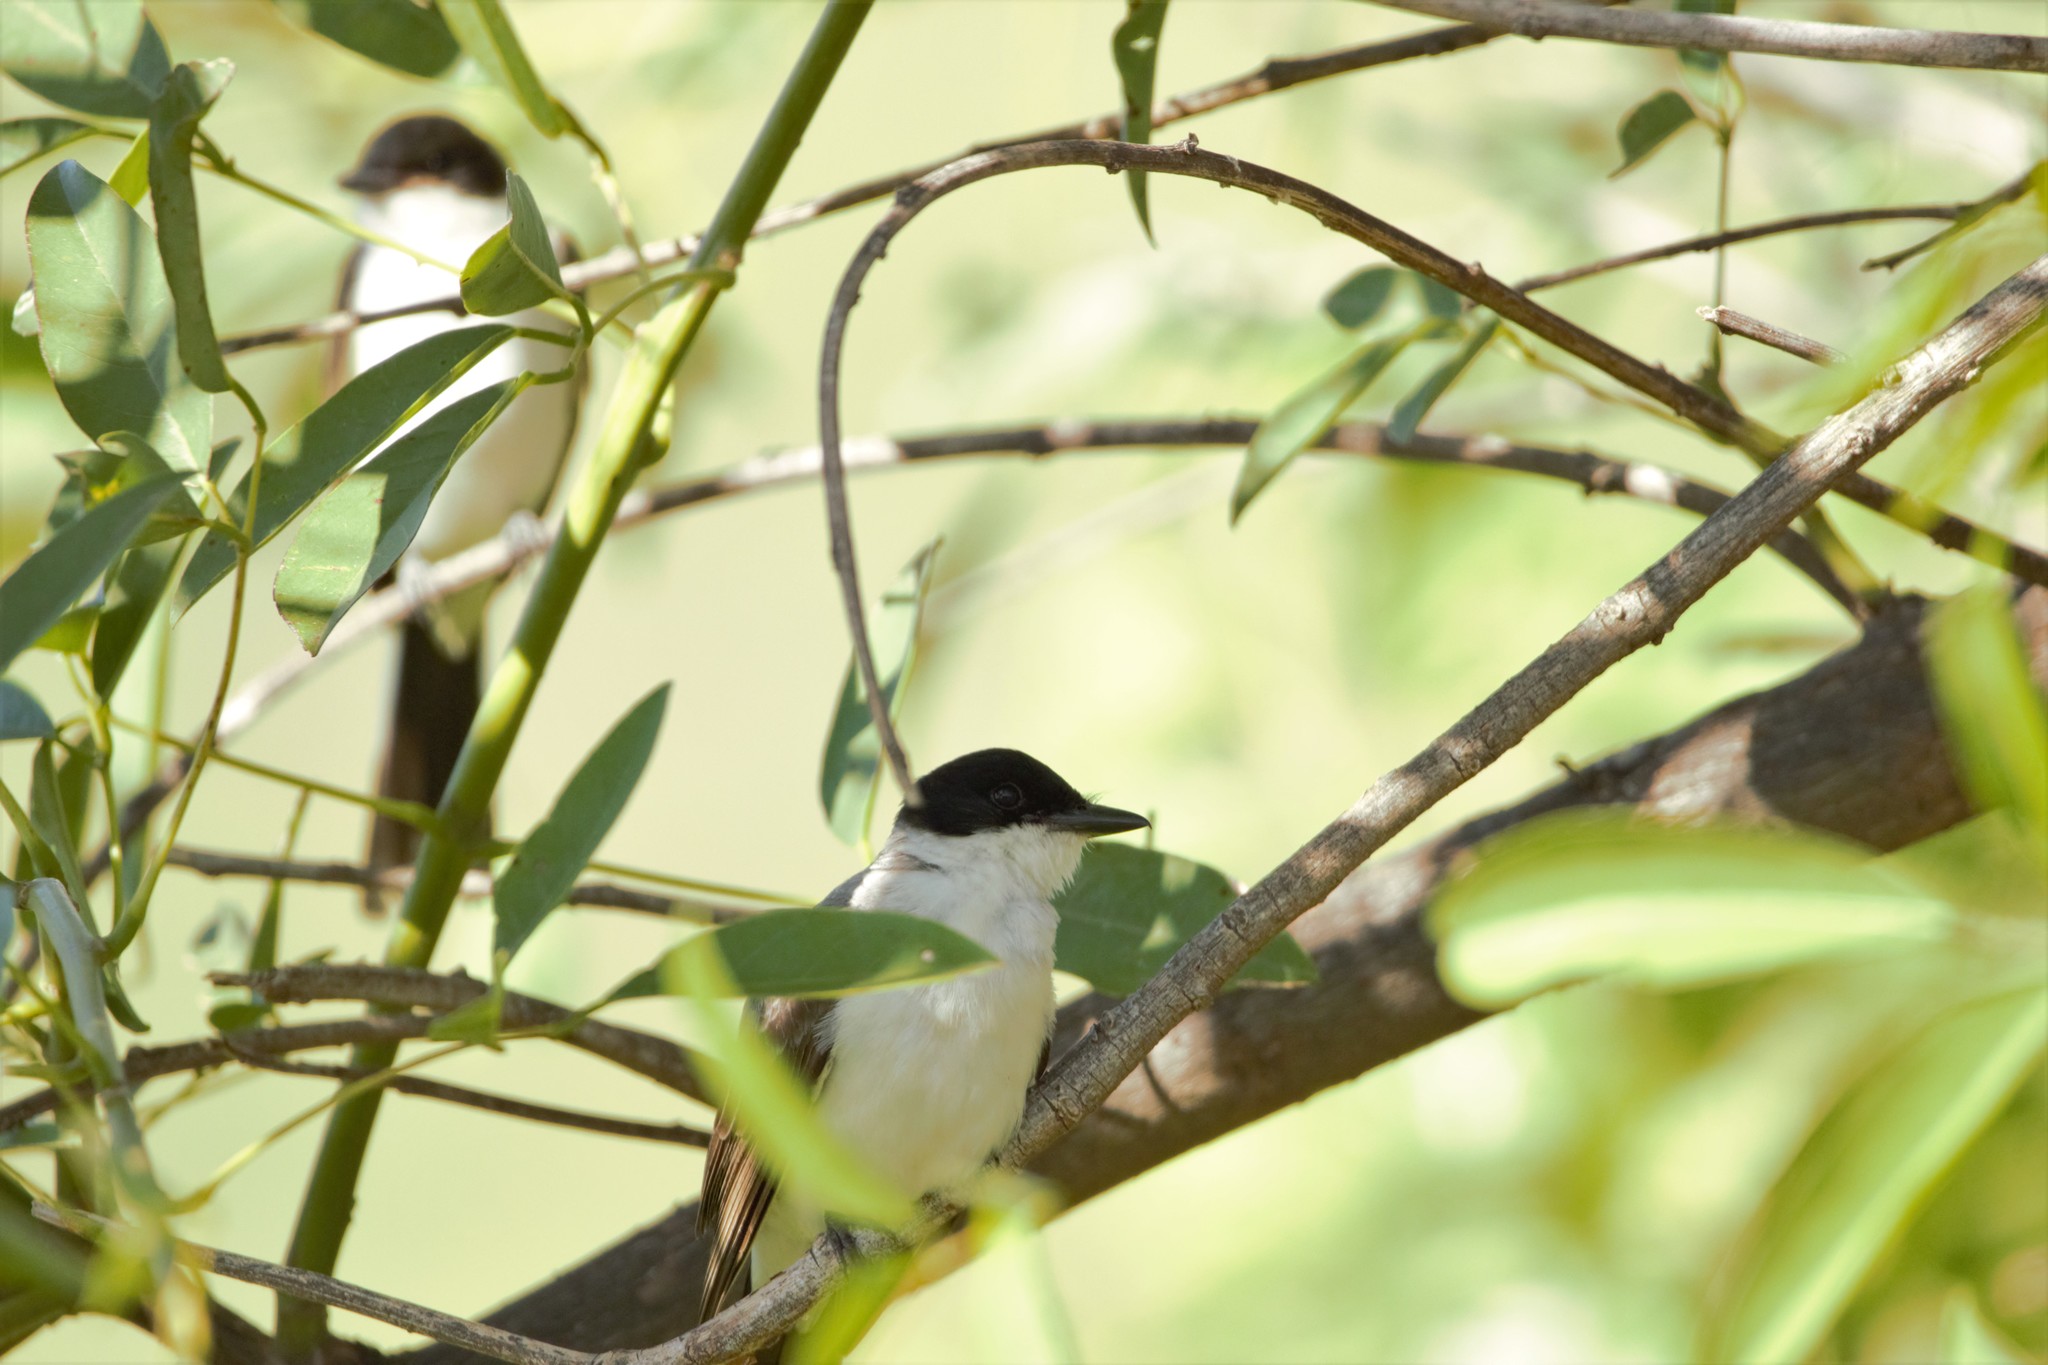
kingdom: Animalia
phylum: Chordata
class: Aves
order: Passeriformes
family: Tyrannidae
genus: Tyrannus
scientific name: Tyrannus savana
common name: Fork-tailed flycatcher
